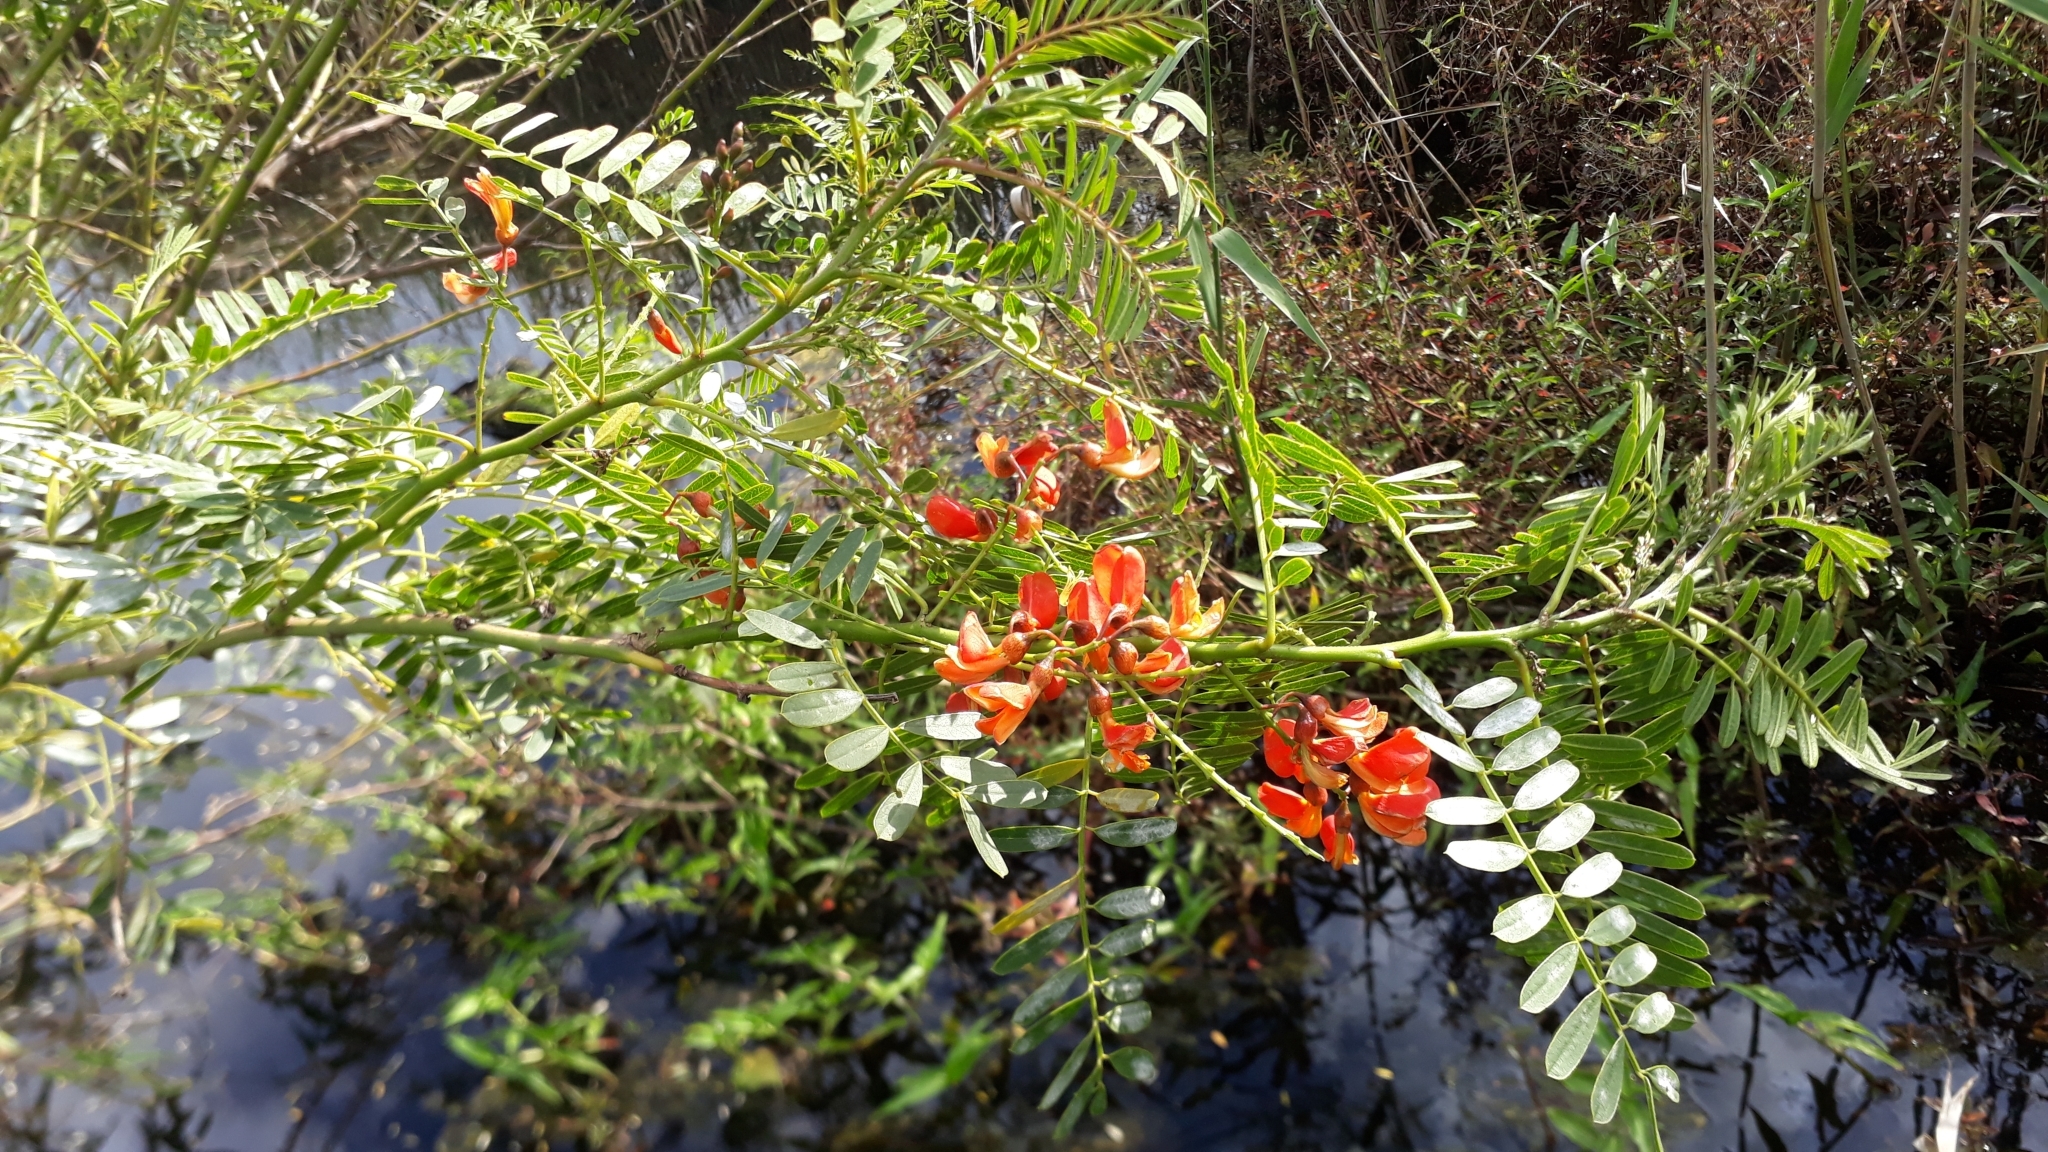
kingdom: Plantae
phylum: Tracheophyta
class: Magnoliopsida
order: Fabales
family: Fabaceae
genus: Sesbania
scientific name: Sesbania punicea
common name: Rattlebox
